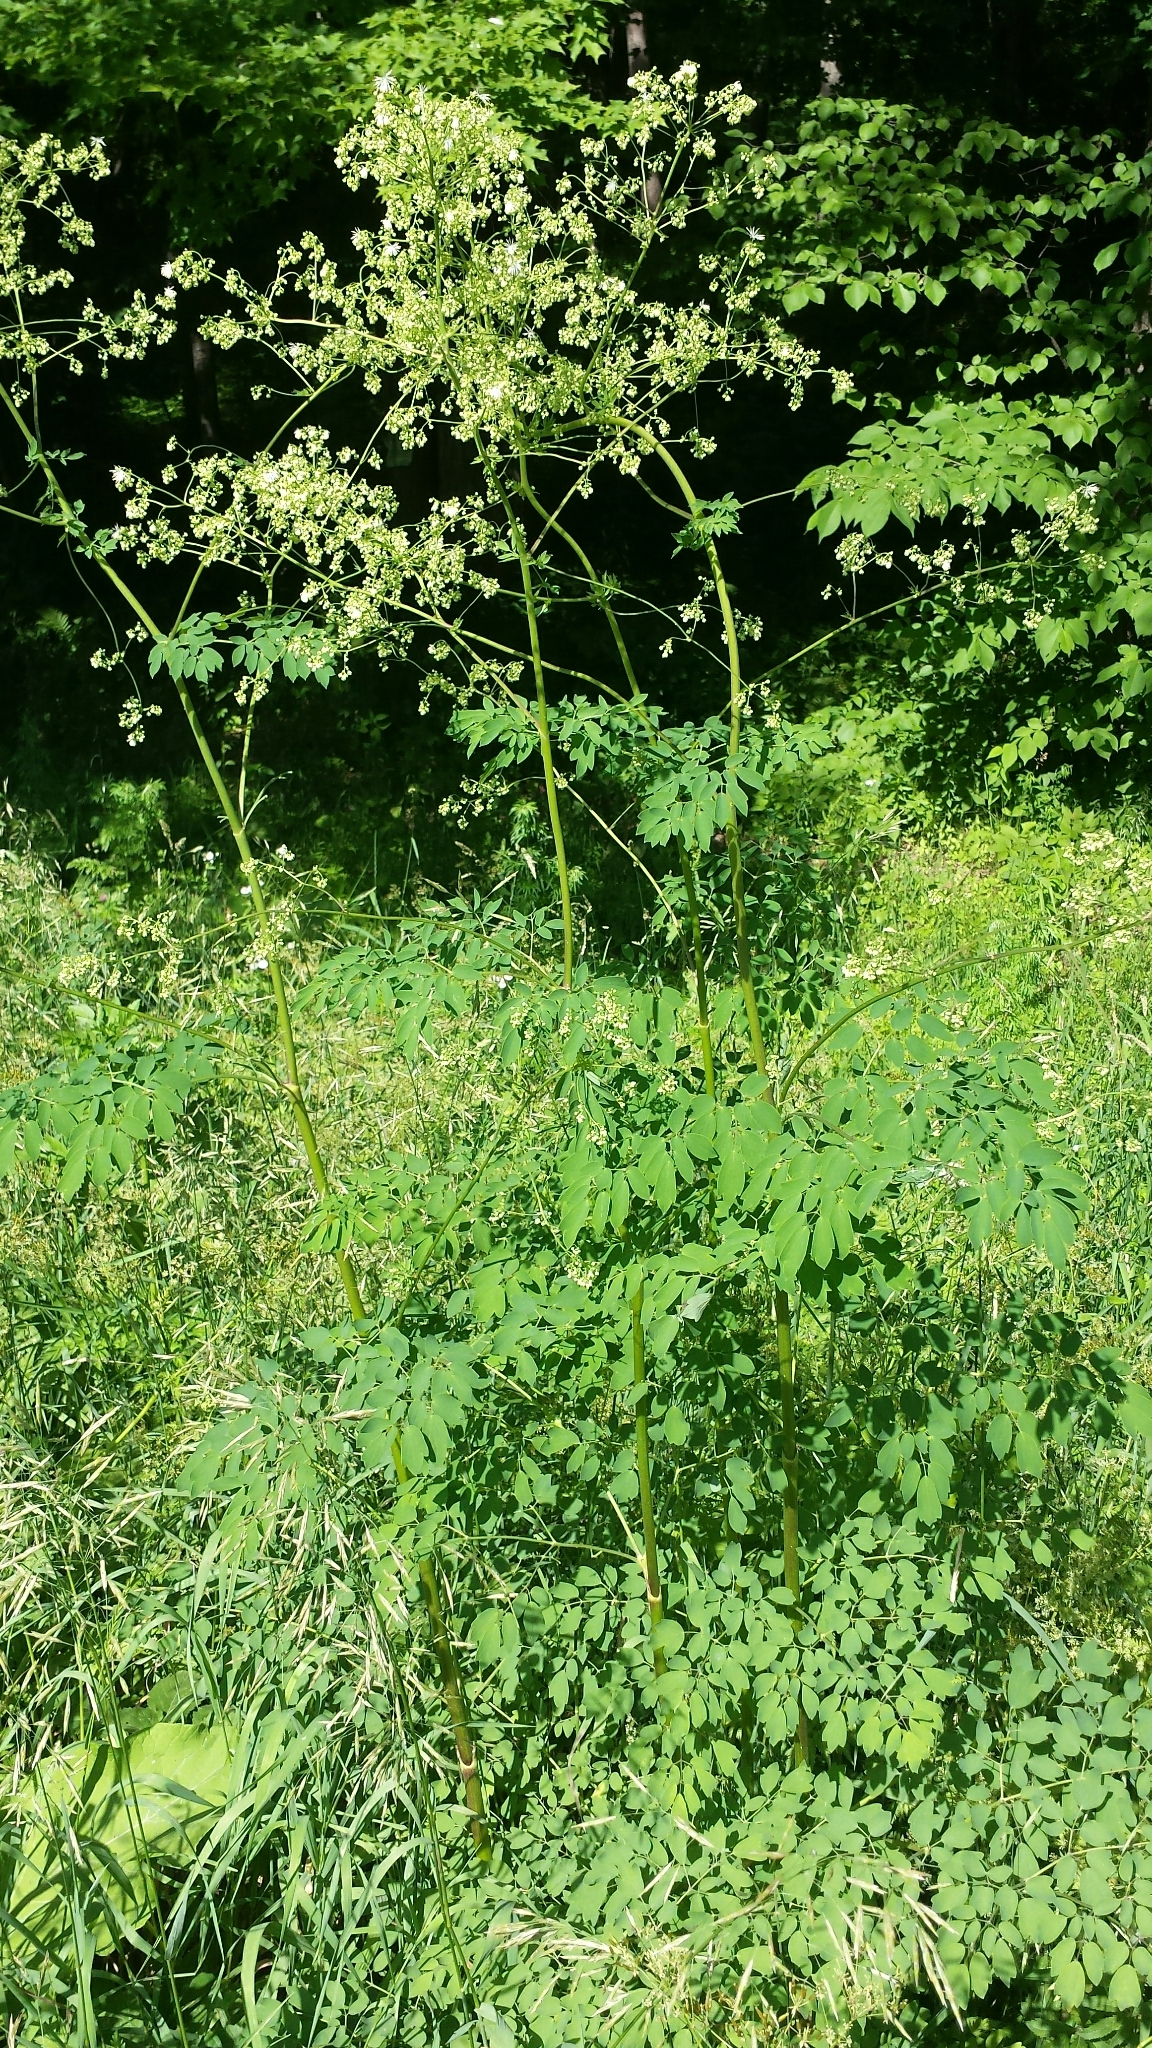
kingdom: Plantae
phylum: Tracheophyta
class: Magnoliopsida
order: Ranunculales
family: Ranunculaceae
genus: Thalictrum
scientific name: Thalictrum pubescens
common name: King-of-the-meadow
